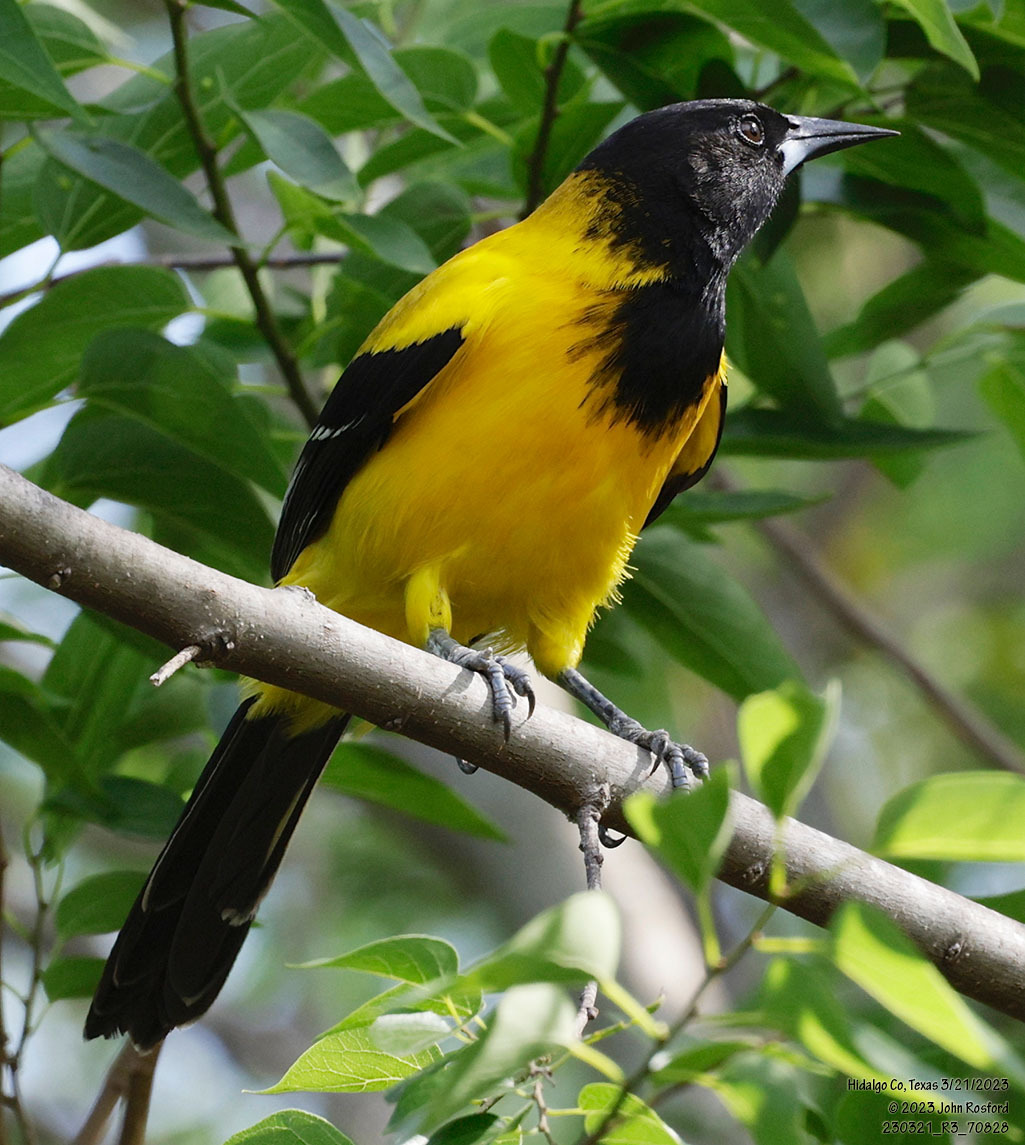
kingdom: Animalia
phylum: Chordata
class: Aves
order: Passeriformes
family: Icteridae
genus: Icterus
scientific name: Icterus graduacauda
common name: Audubon's oriole
